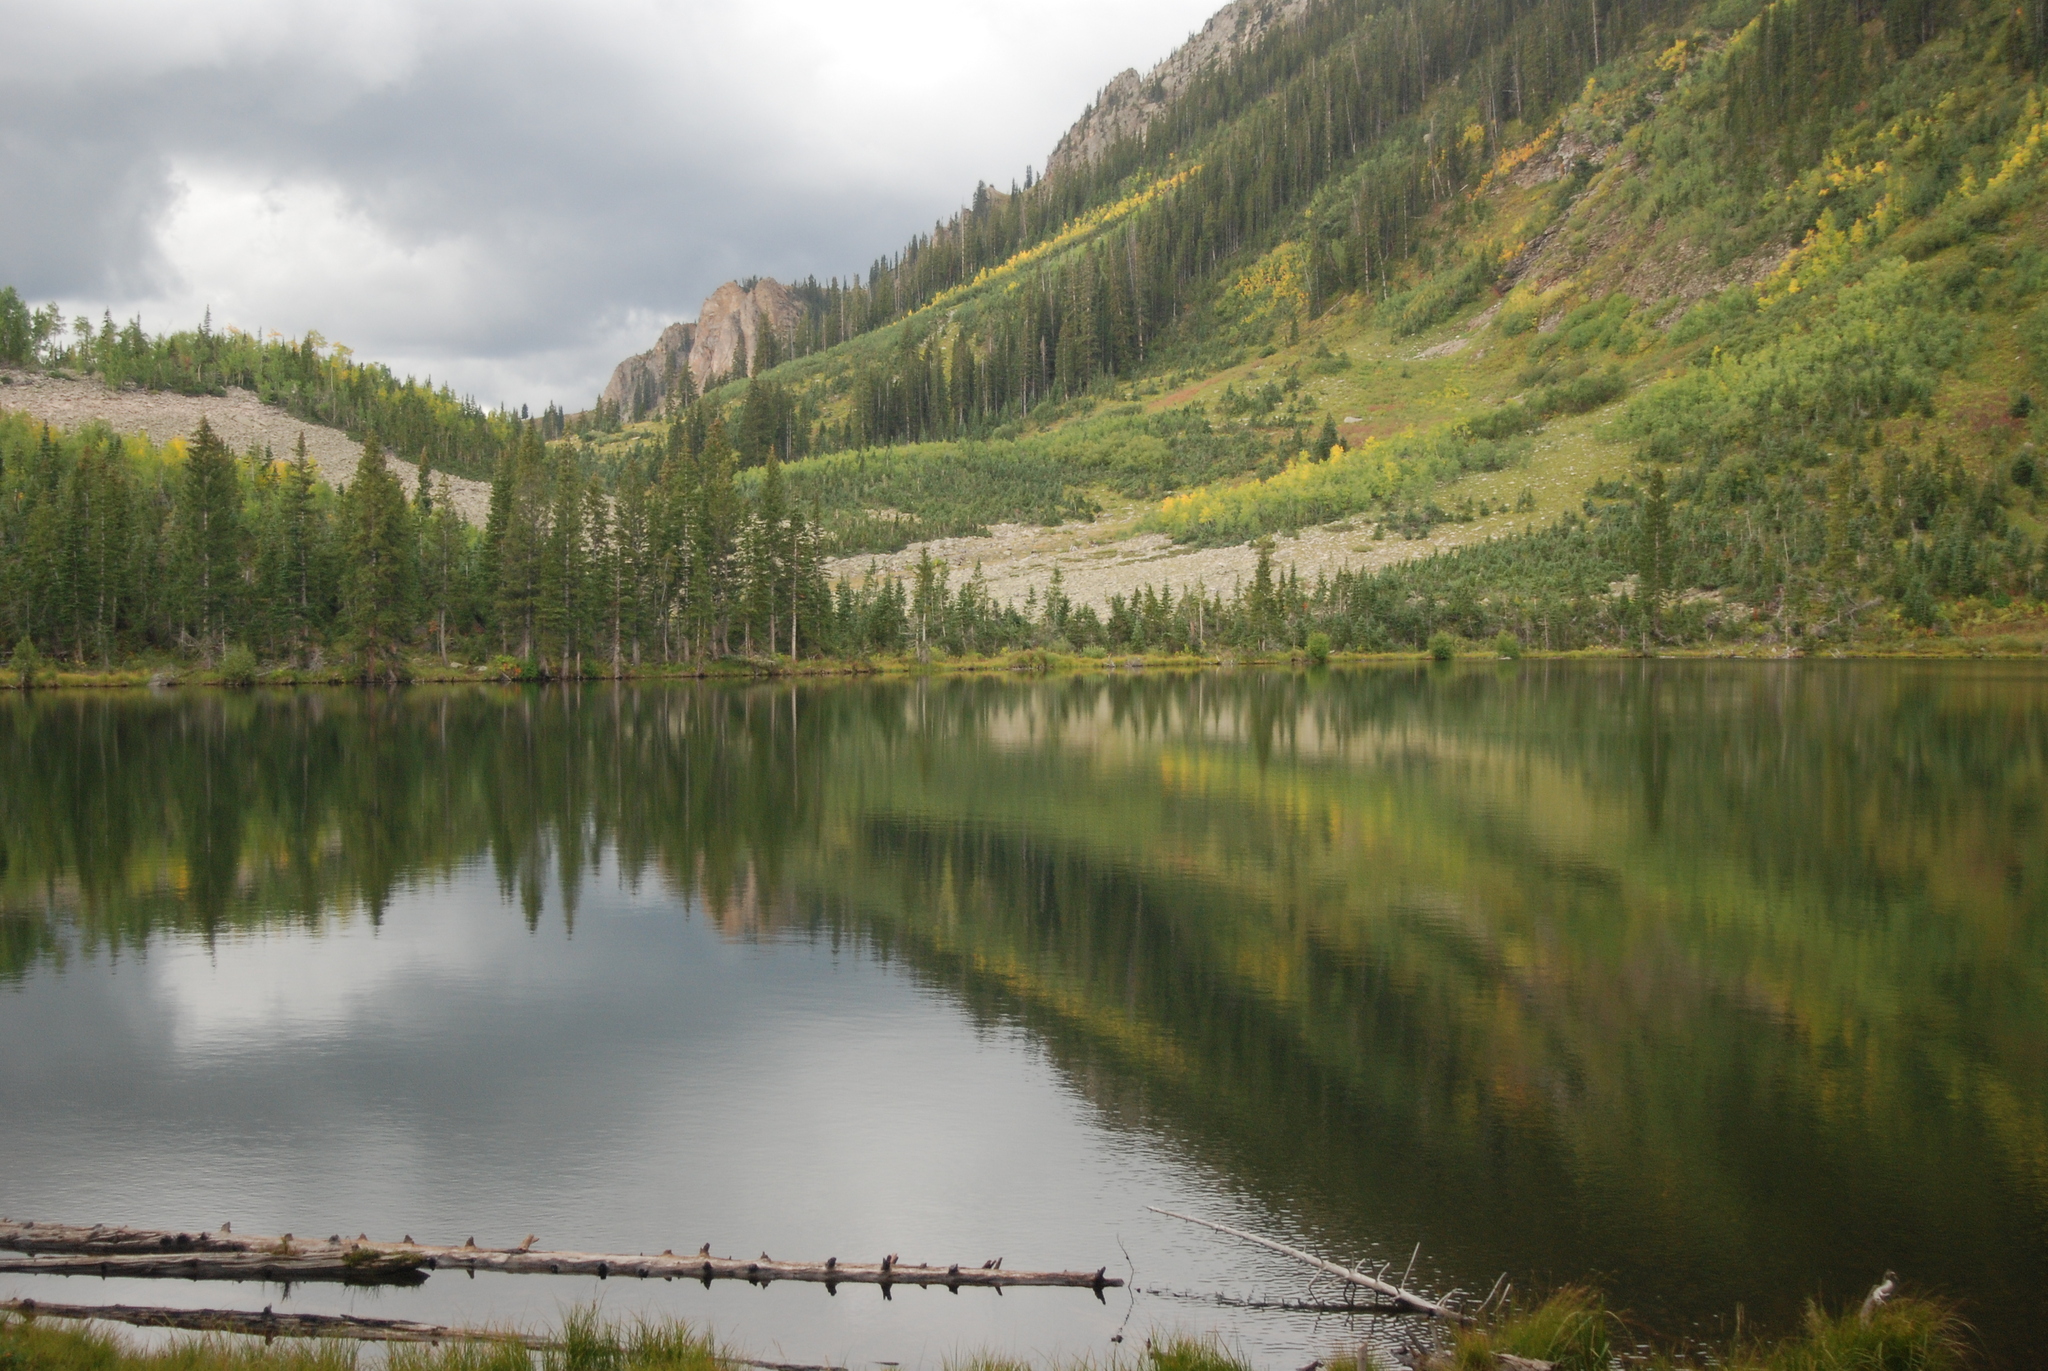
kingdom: Plantae
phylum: Tracheophyta
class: Magnoliopsida
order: Malpighiales
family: Salicaceae
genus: Populus
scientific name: Populus tremuloides
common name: Quaking aspen
